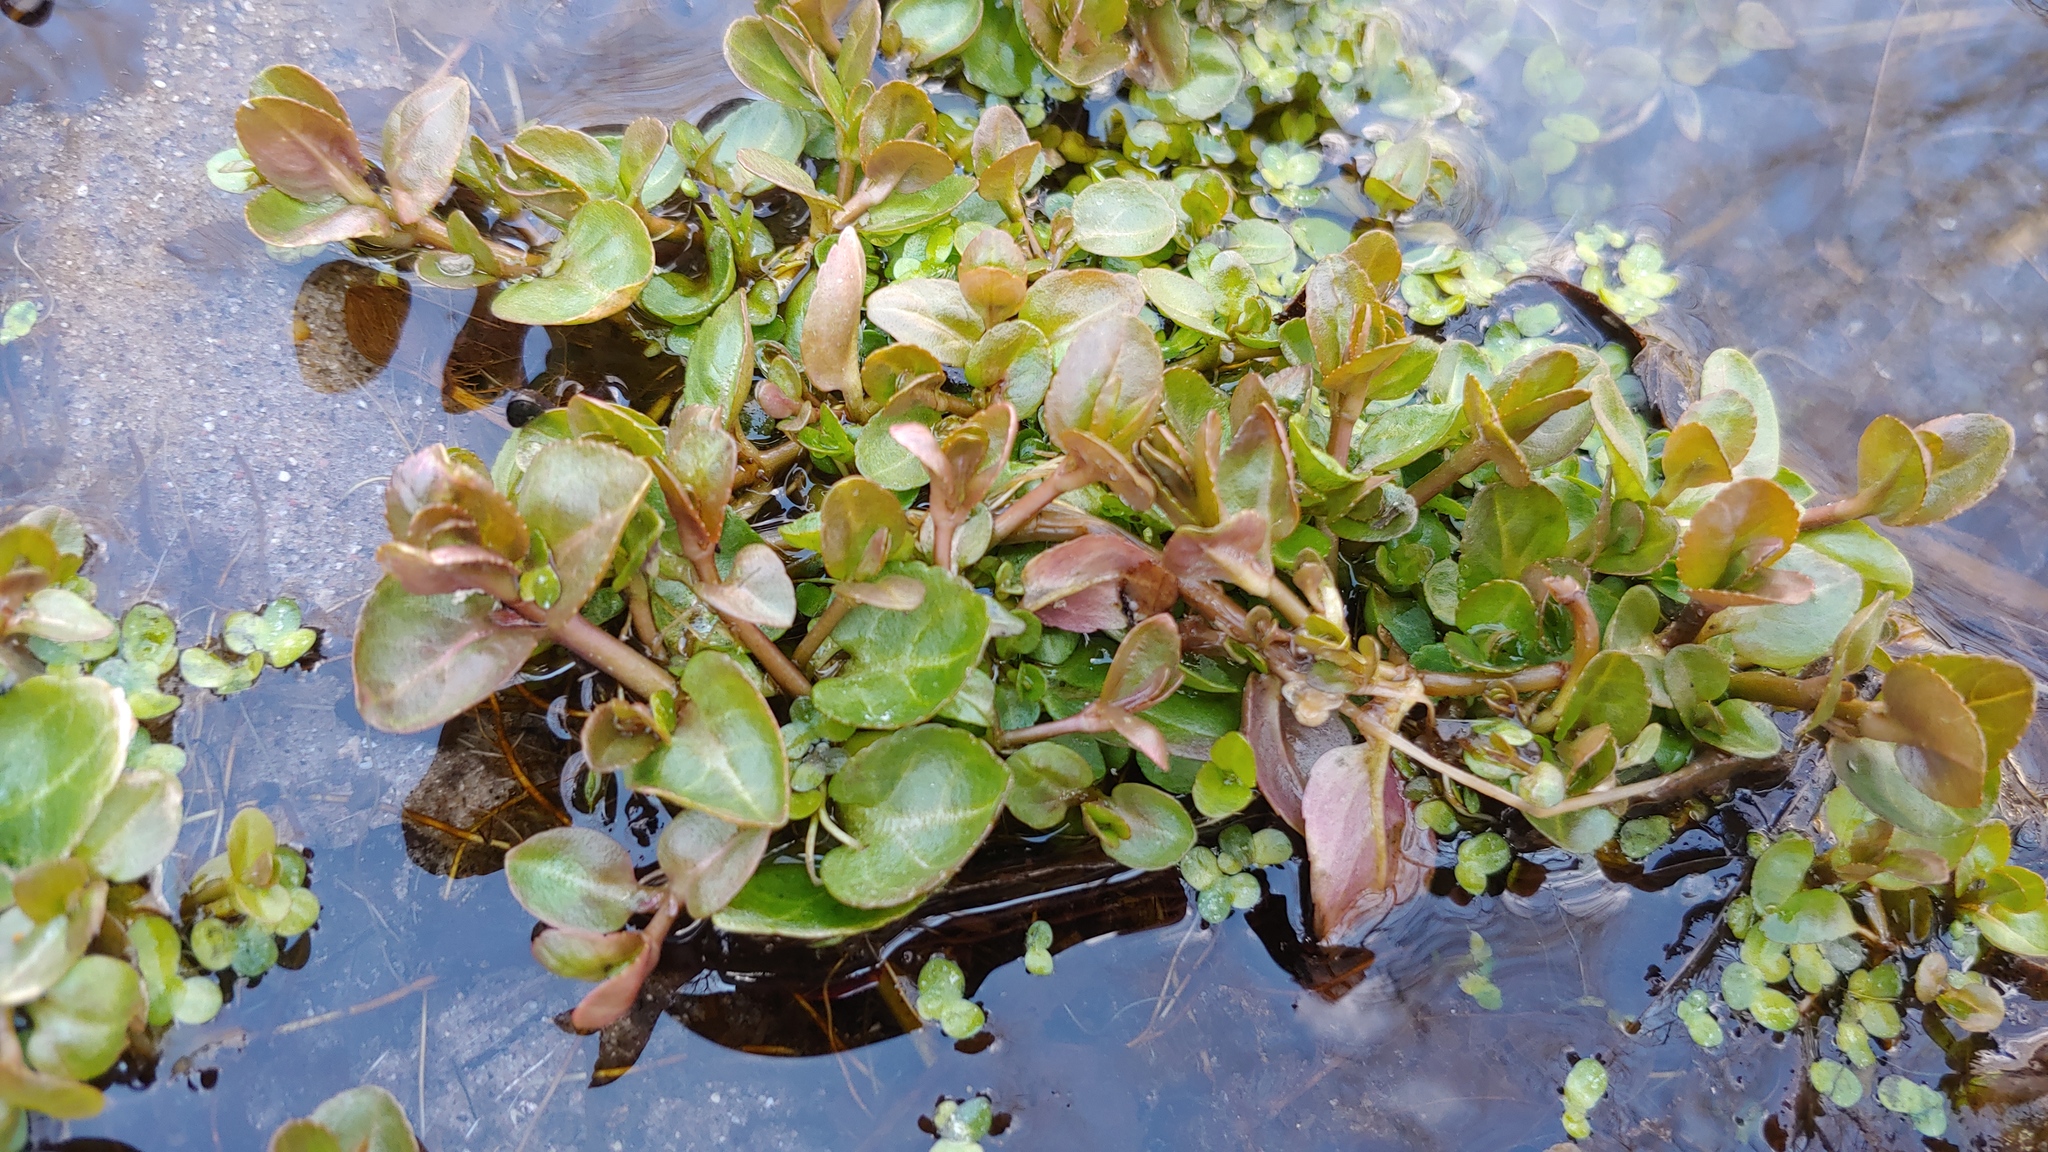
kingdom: Plantae
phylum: Tracheophyta
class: Magnoliopsida
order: Lamiales
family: Plantaginaceae
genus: Veronica
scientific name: Veronica americana
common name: American brooklime
